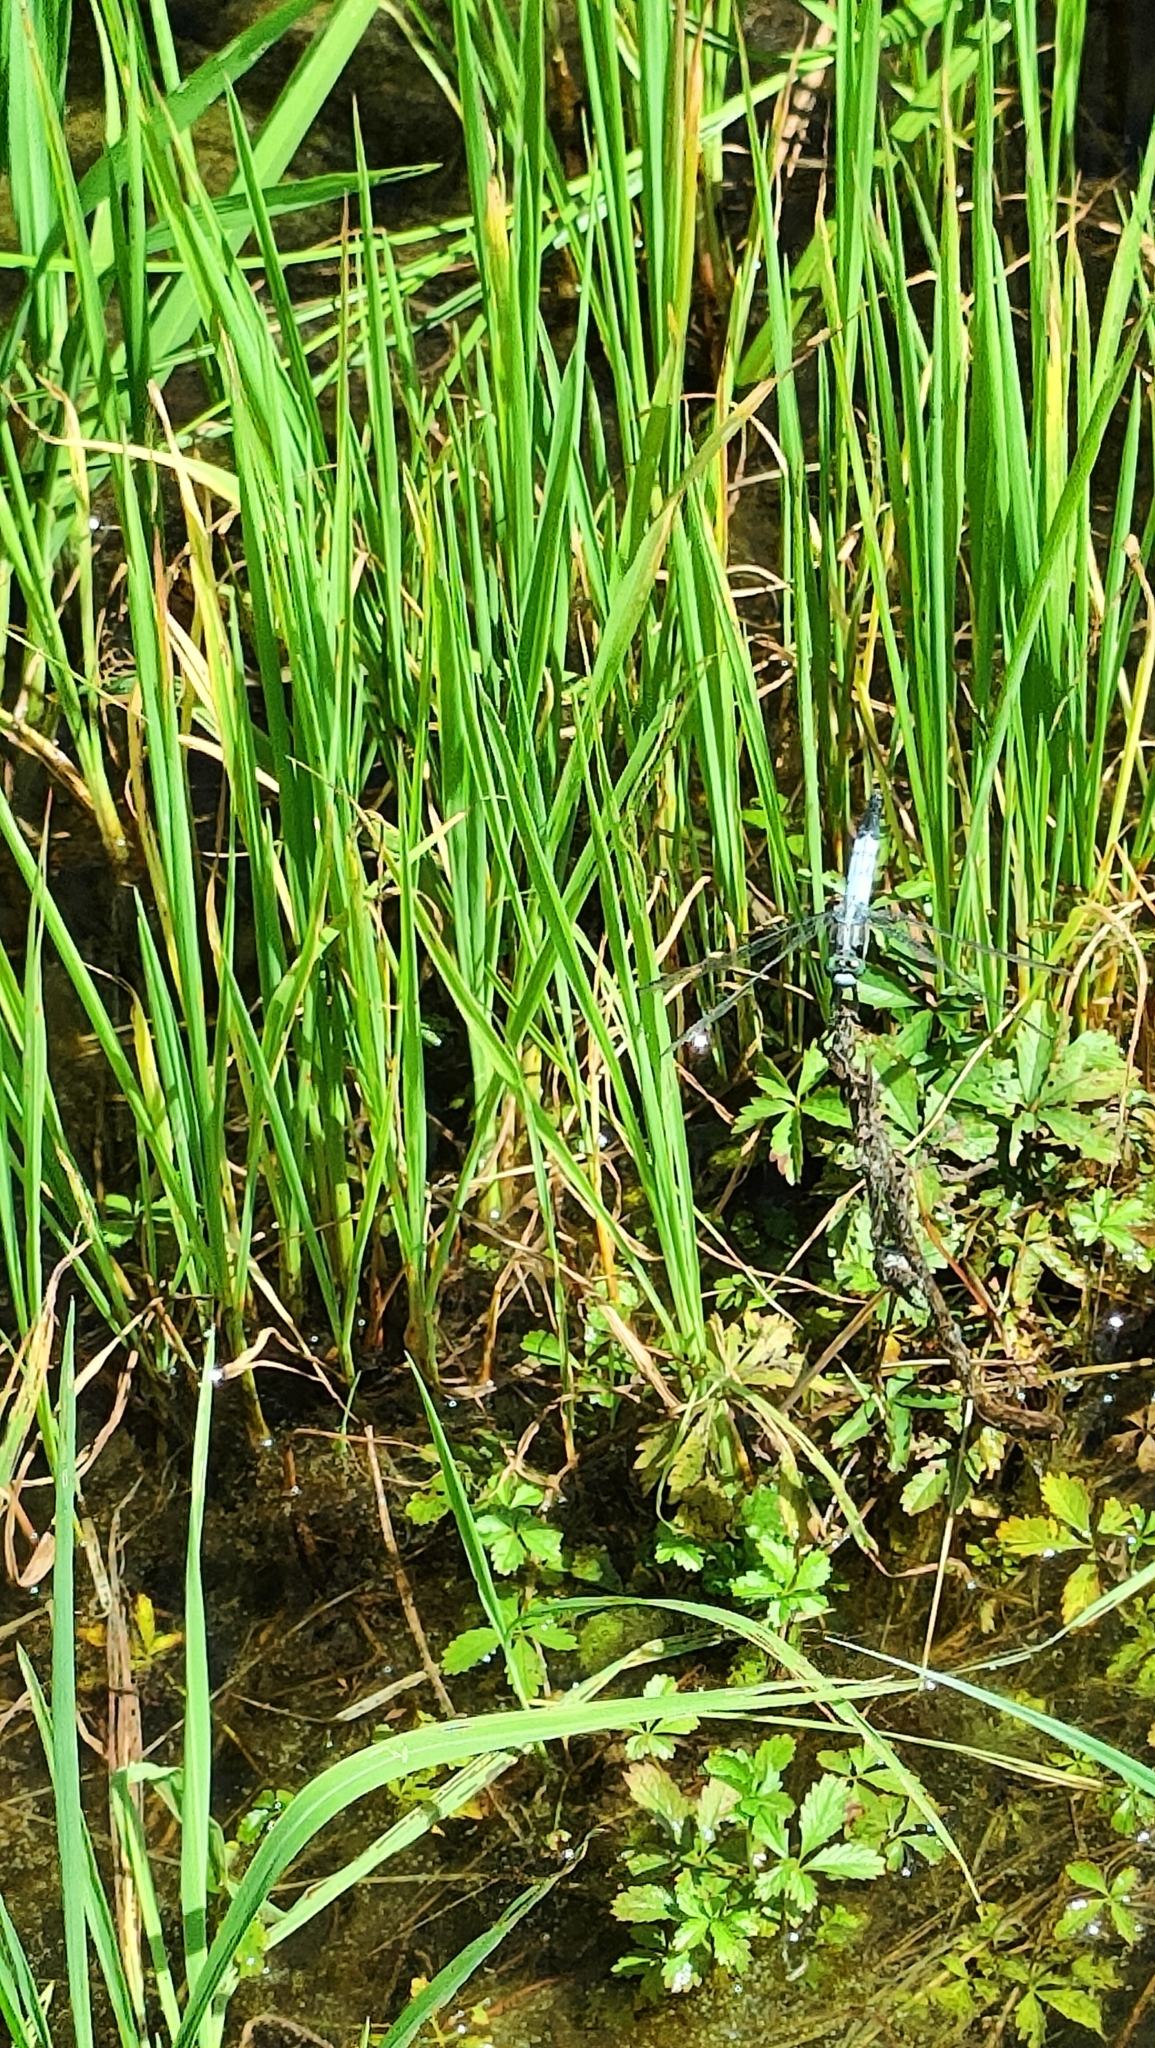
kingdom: Animalia
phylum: Arthropoda
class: Insecta
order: Odonata
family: Libellulidae
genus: Orthetrum
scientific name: Orthetrum albistylum
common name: White-tailed skimmer
